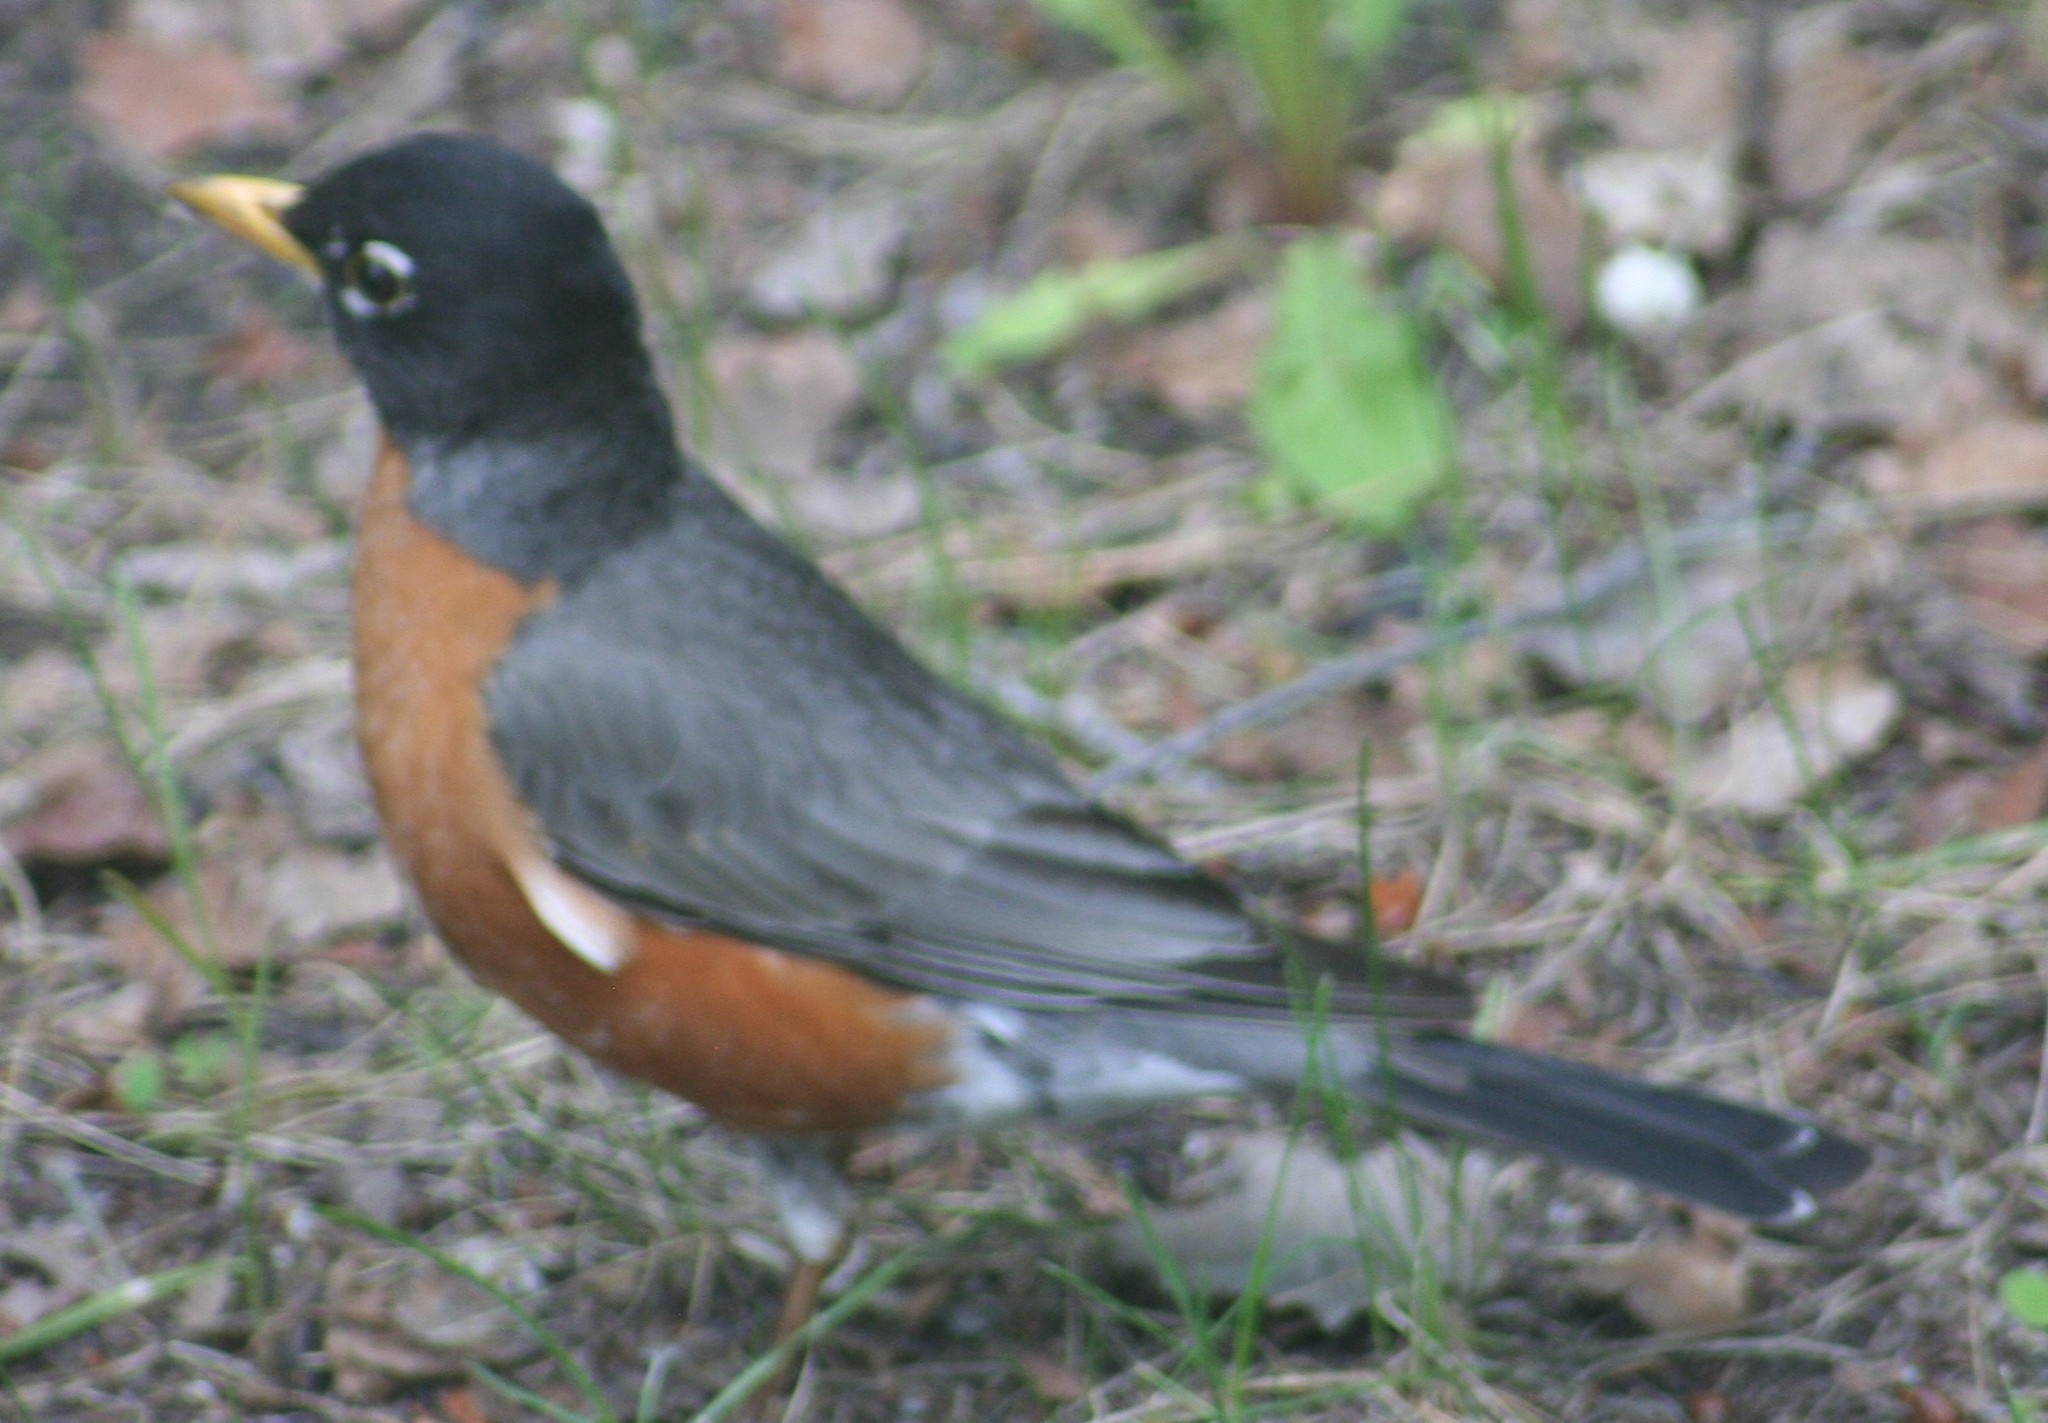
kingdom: Animalia
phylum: Chordata
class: Aves
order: Passeriformes
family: Turdidae
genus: Turdus
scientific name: Turdus migratorius
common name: American robin
